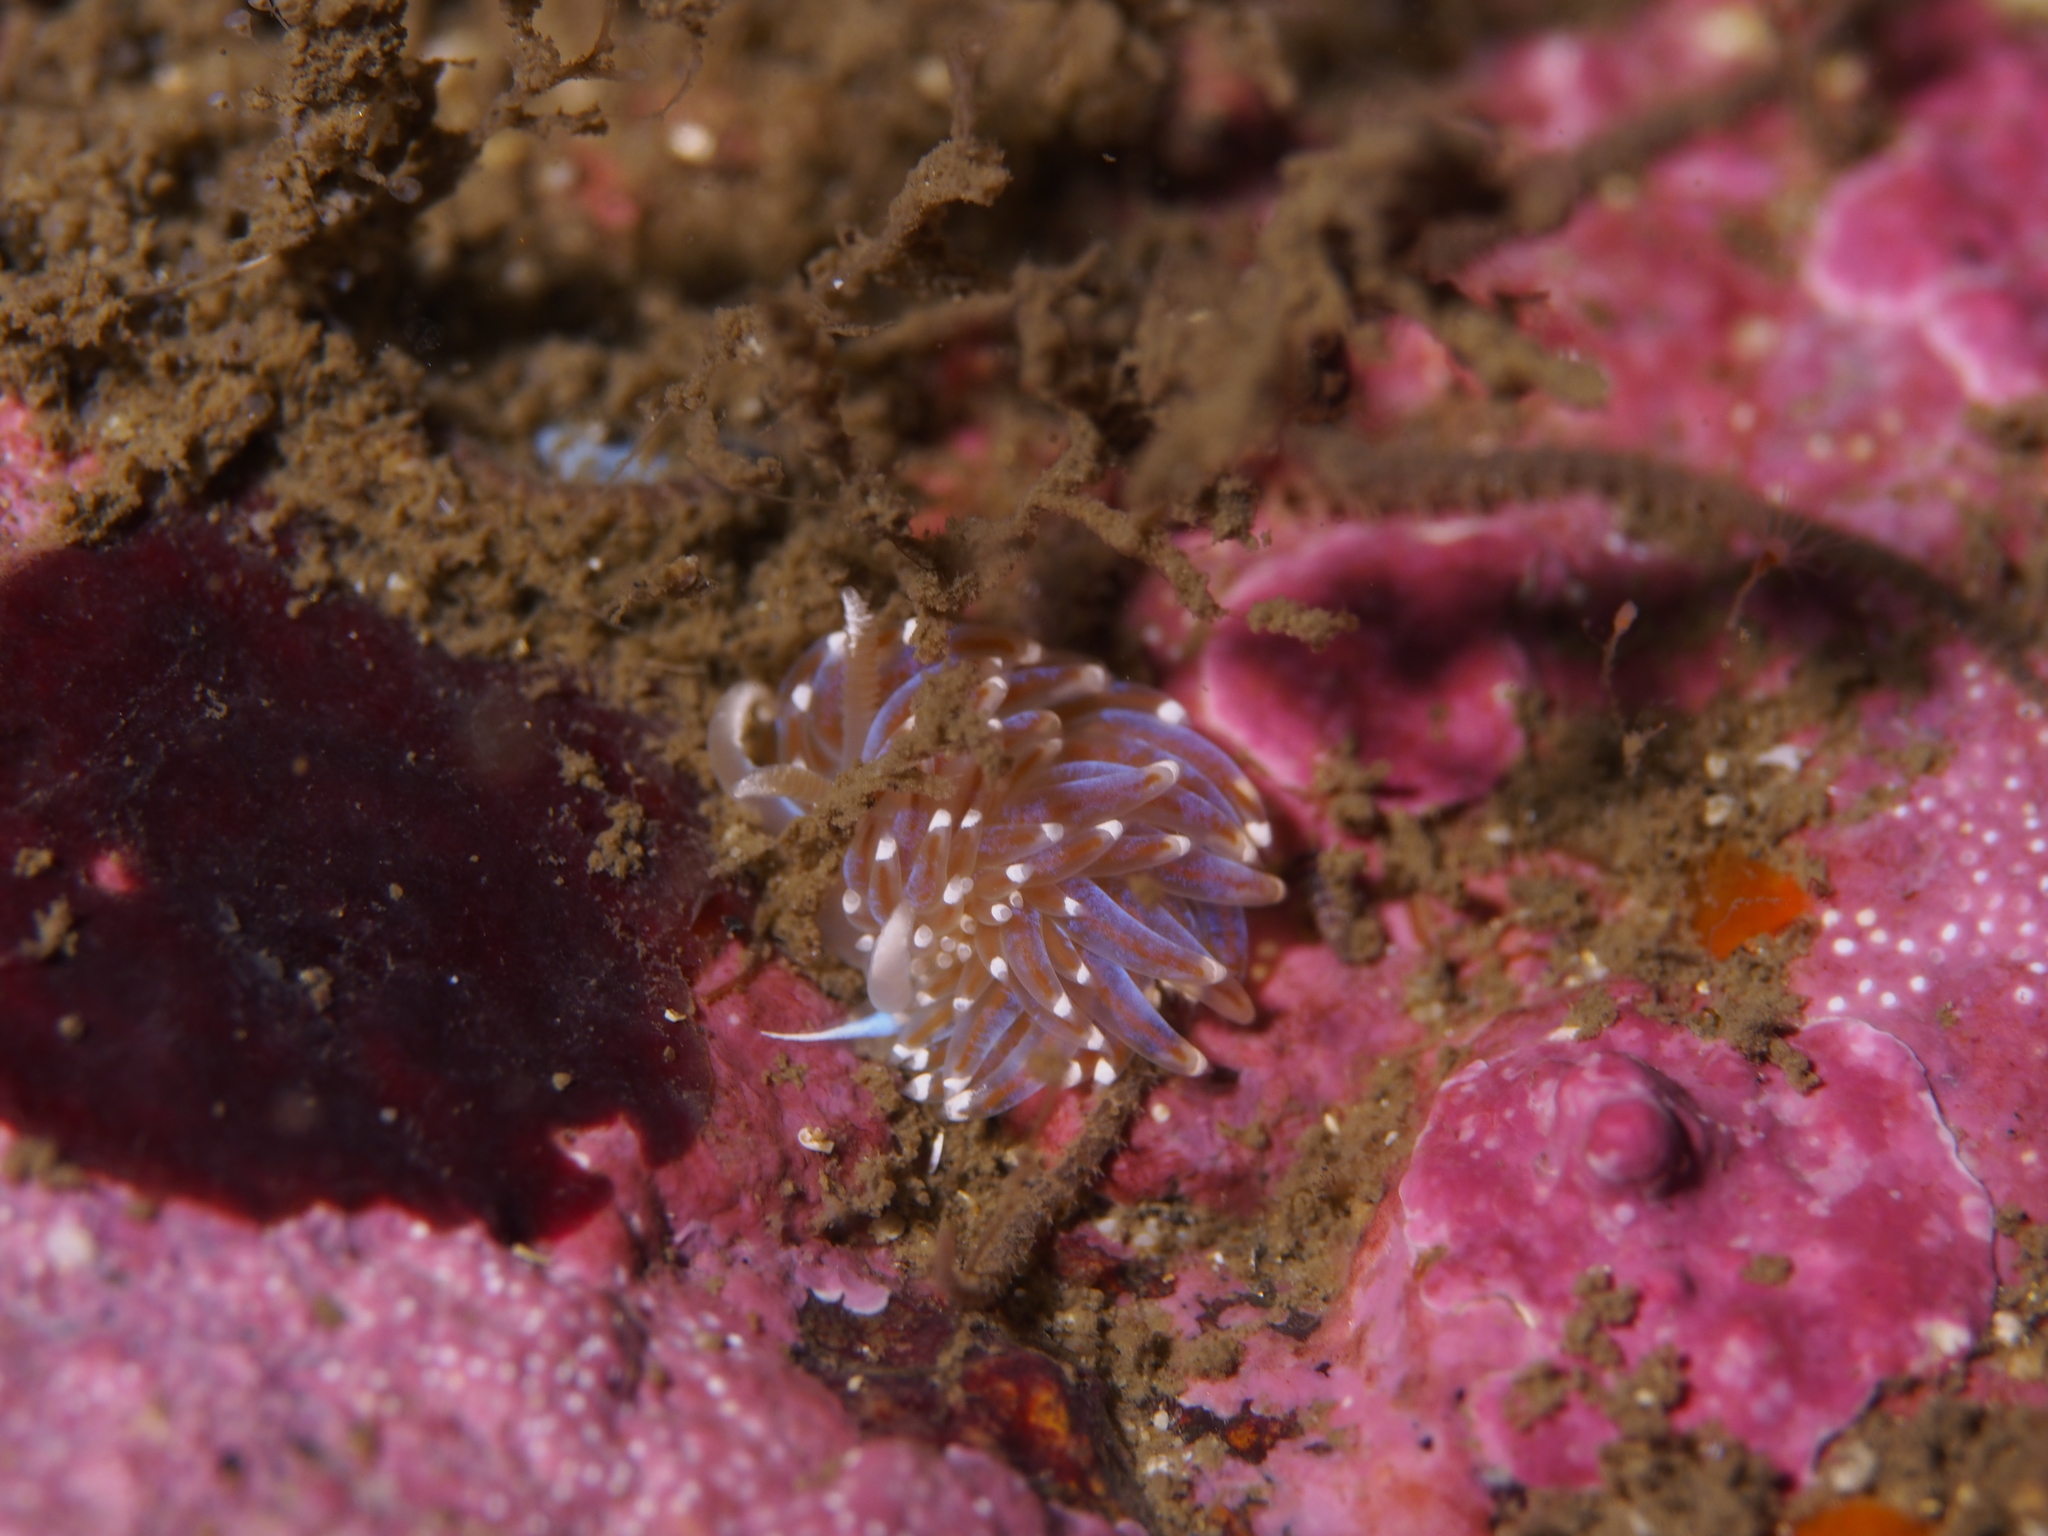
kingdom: Animalia
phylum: Mollusca
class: Gastropoda
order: Nudibranchia
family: Facelinidae
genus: Facelina
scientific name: Facelina auriculata
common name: Slender facelina
